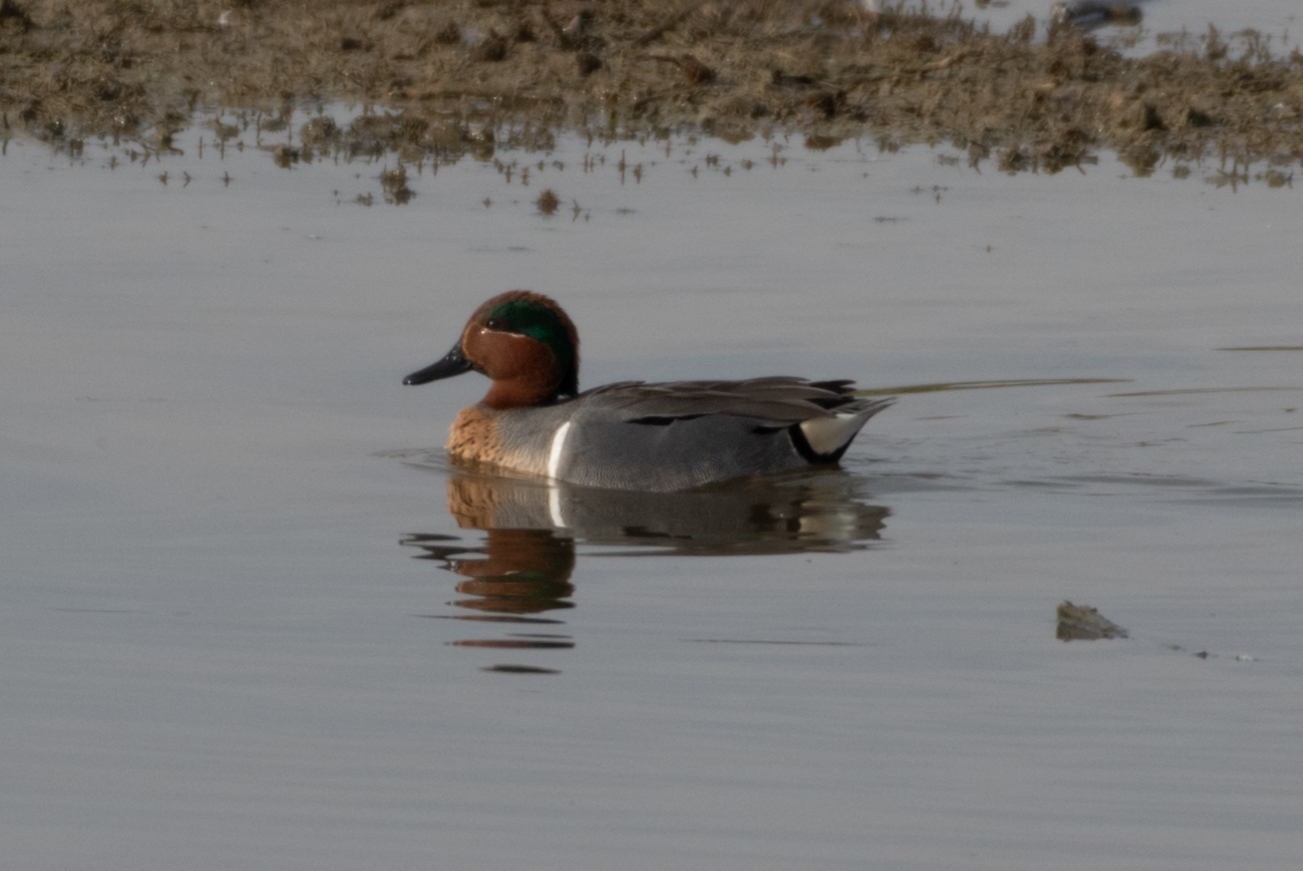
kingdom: Animalia
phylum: Chordata
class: Aves
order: Anseriformes
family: Anatidae
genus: Anas
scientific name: Anas crecca
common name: Eurasian teal
